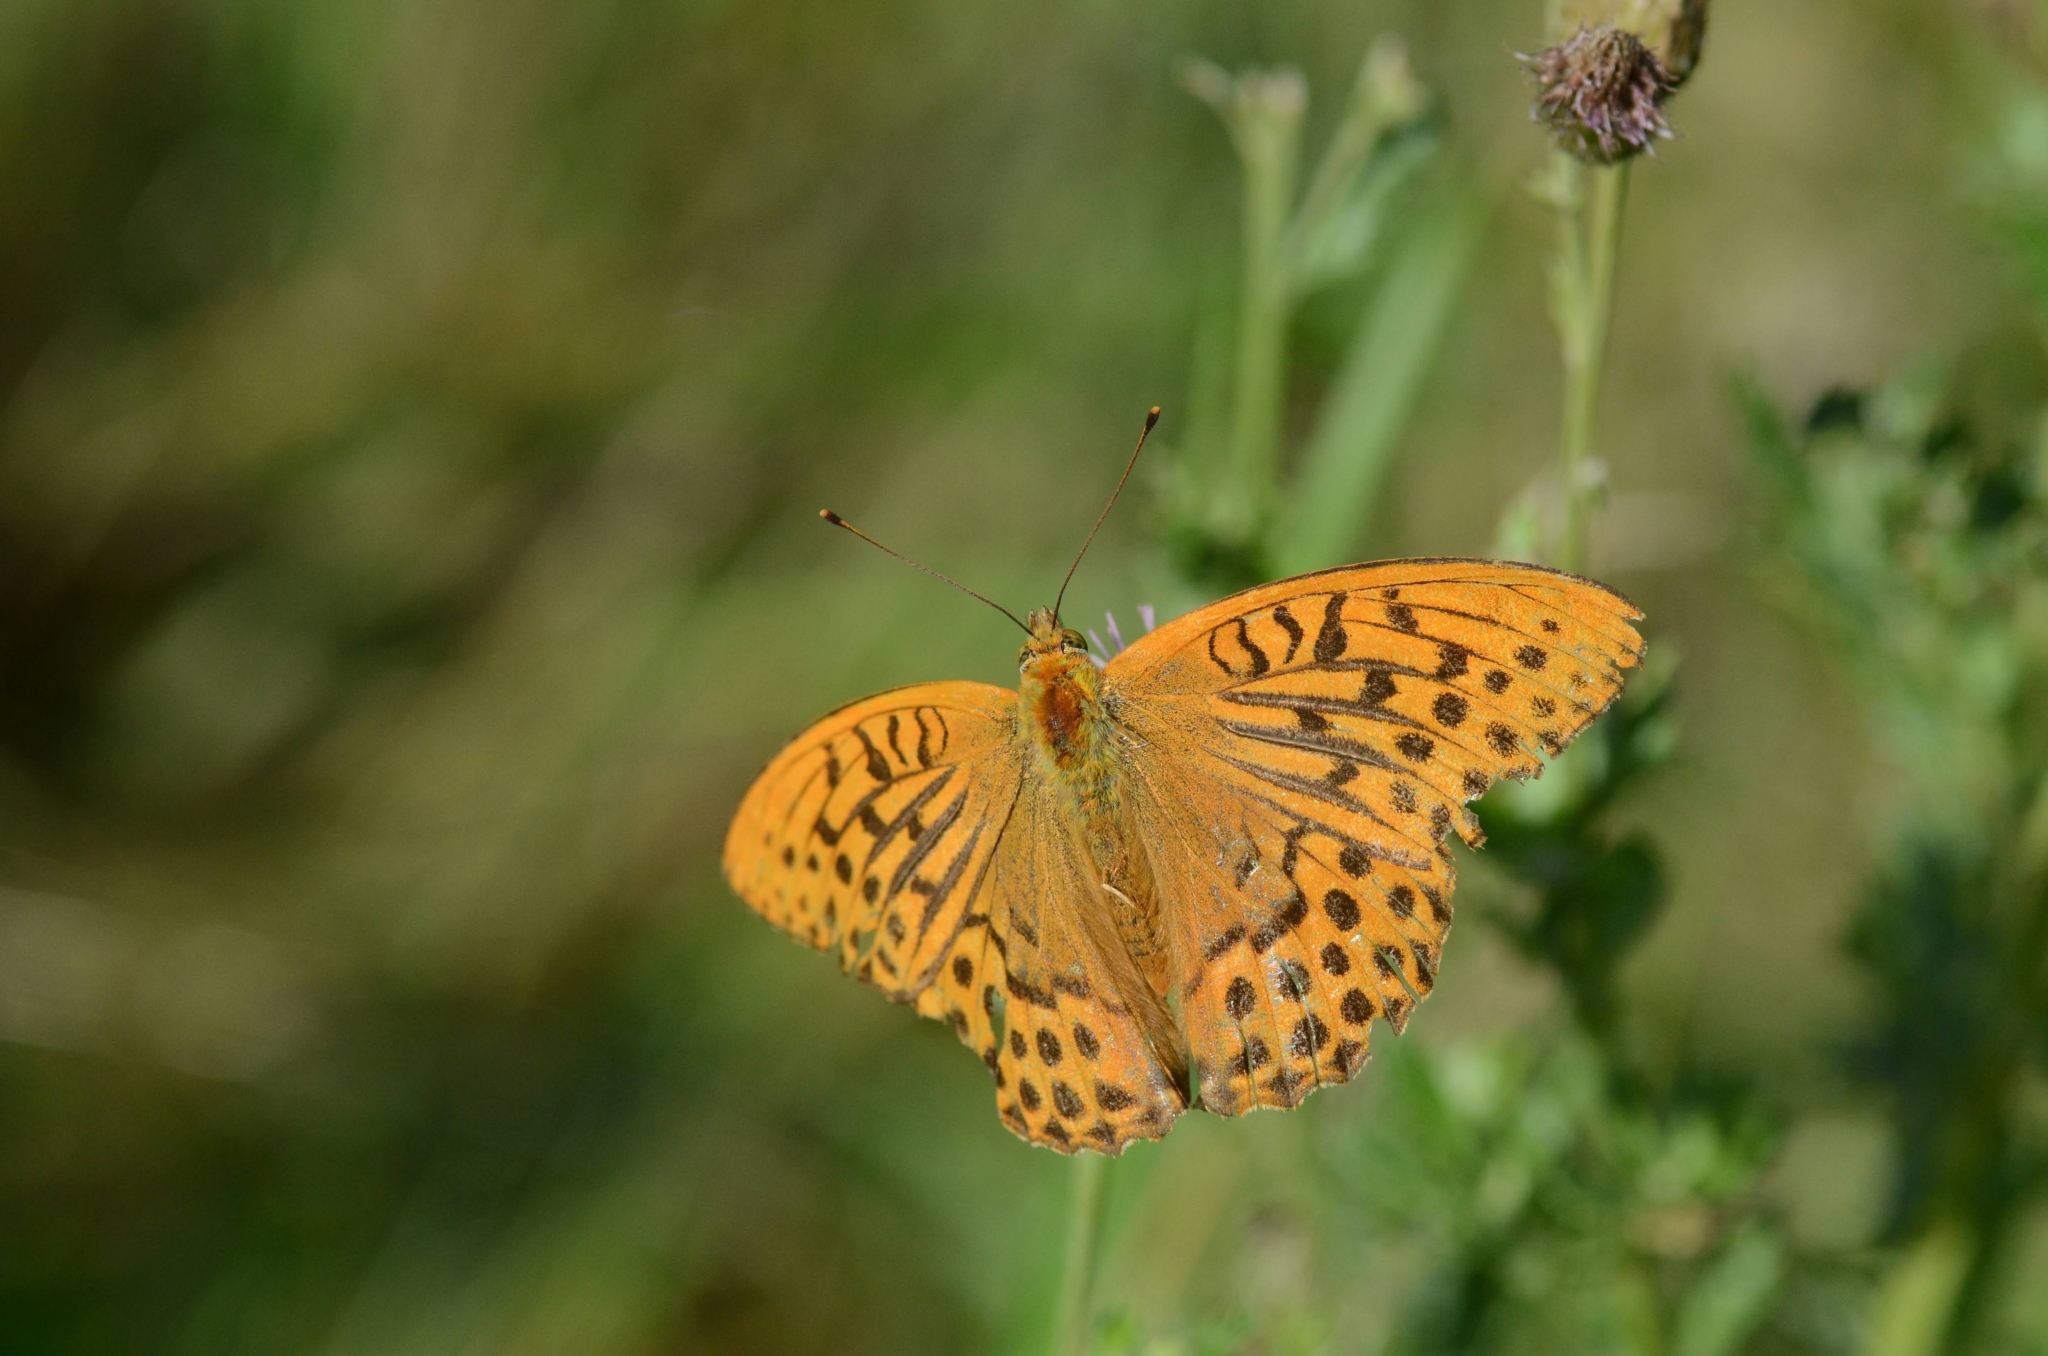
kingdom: Animalia
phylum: Arthropoda
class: Insecta
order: Lepidoptera
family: Nymphalidae
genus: Argynnis
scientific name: Argynnis paphia
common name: Silver-washed fritillary
